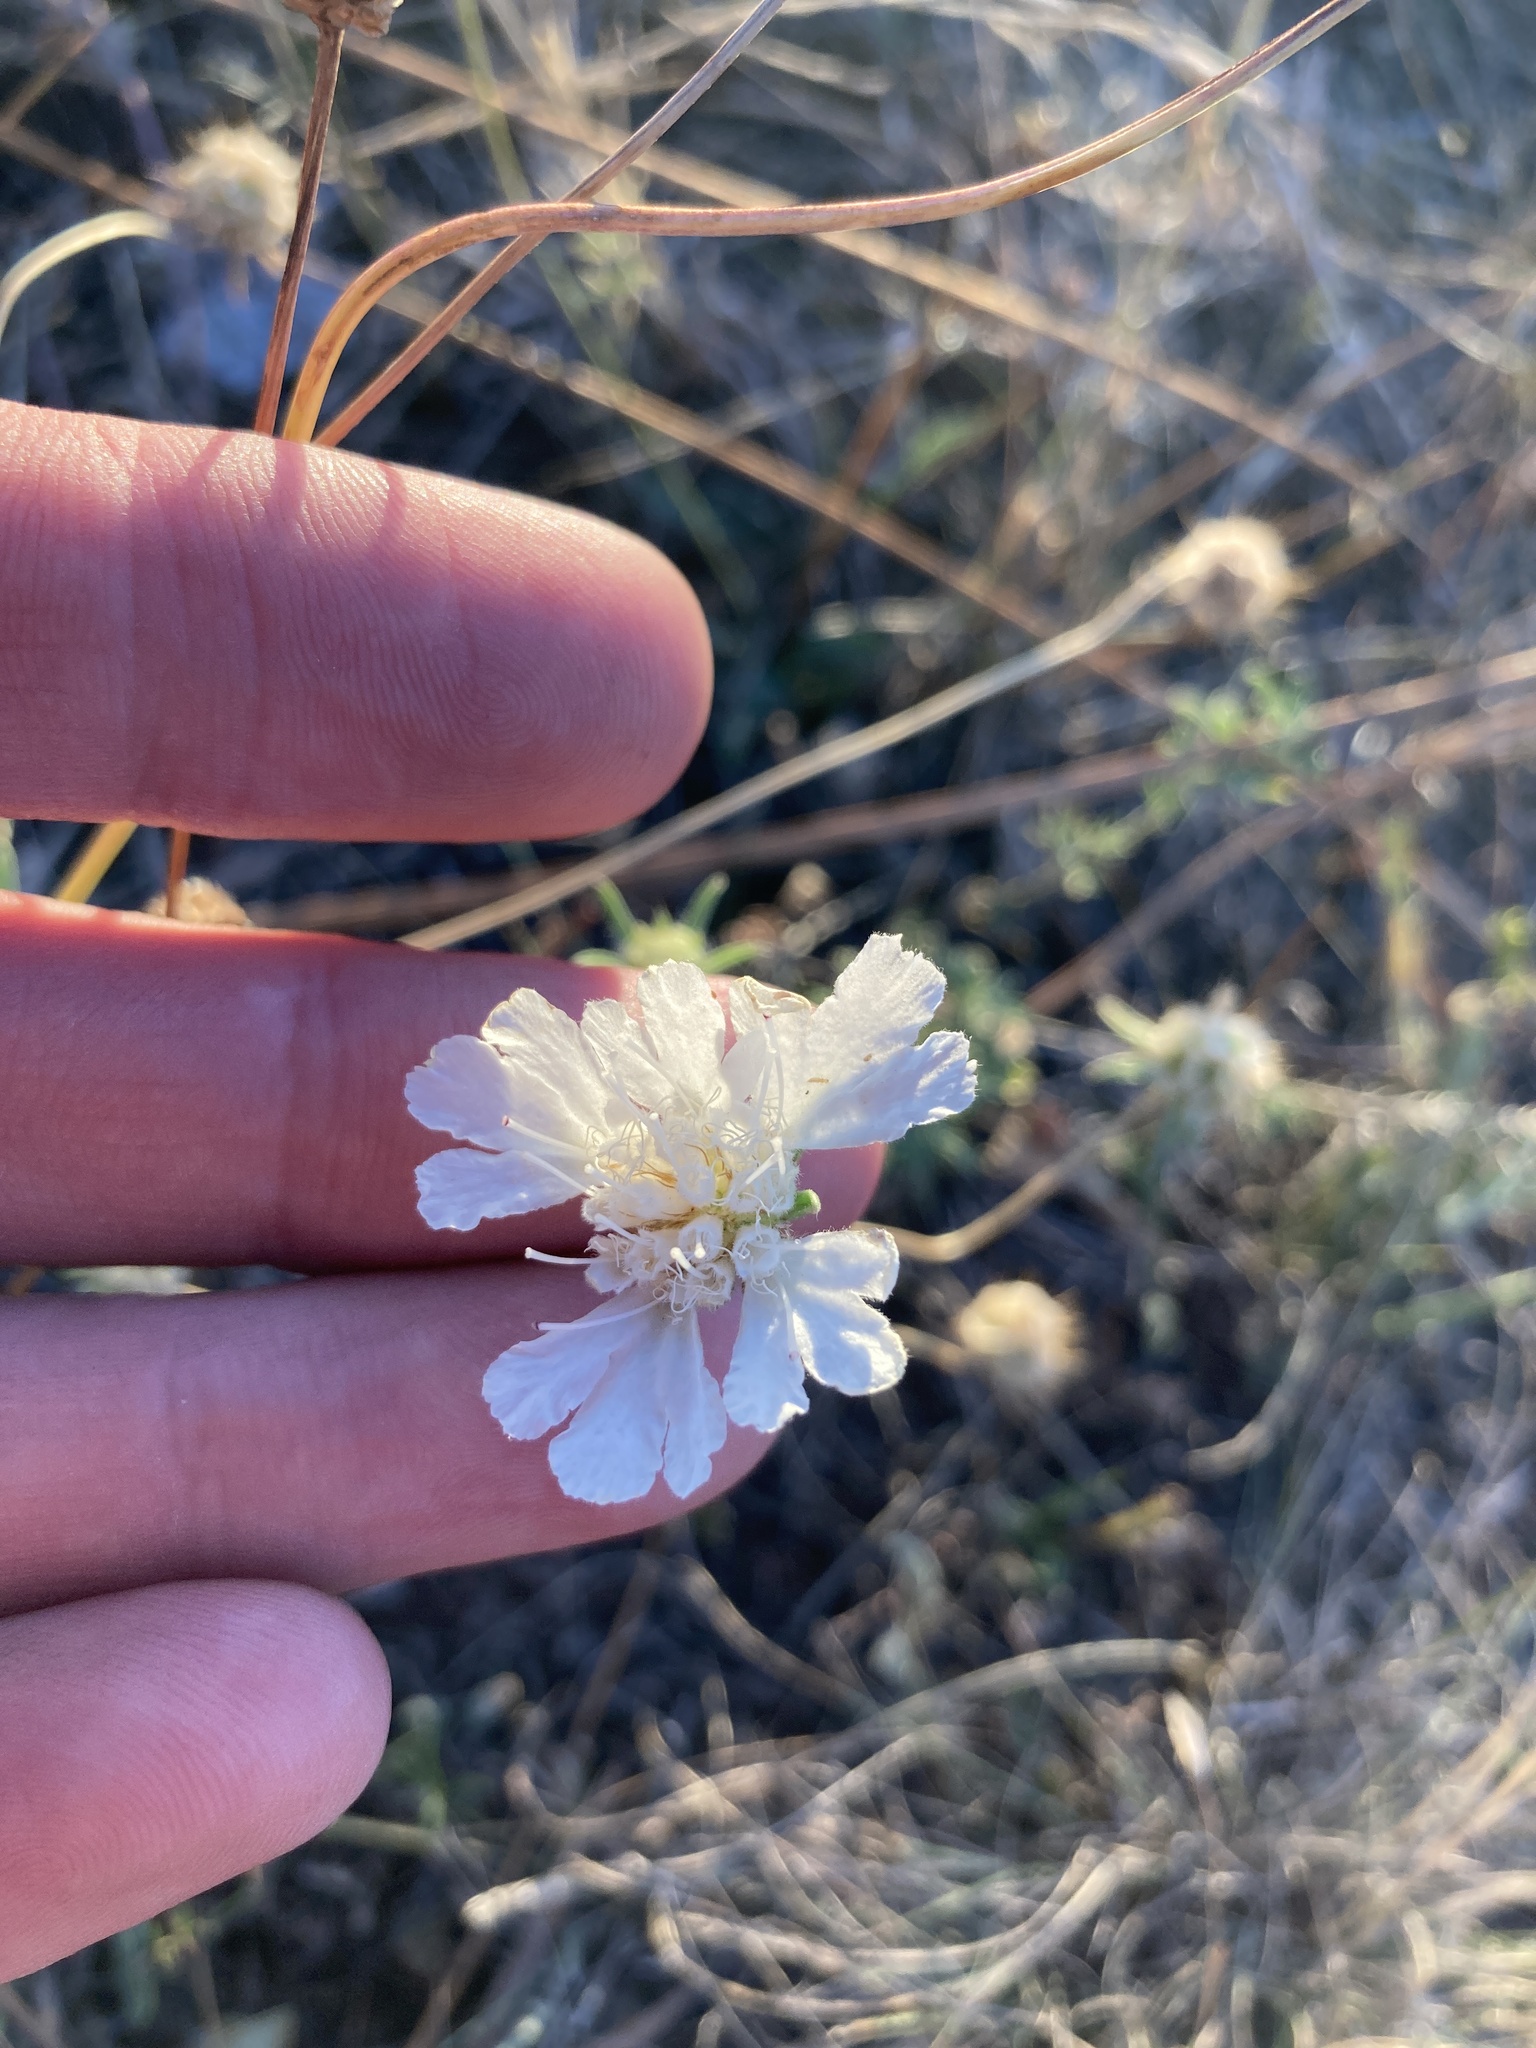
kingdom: Plantae
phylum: Tracheophyta
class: Magnoliopsida
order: Dipsacales
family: Caprifoliaceae
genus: Lomelosia
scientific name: Lomelosia argentea
